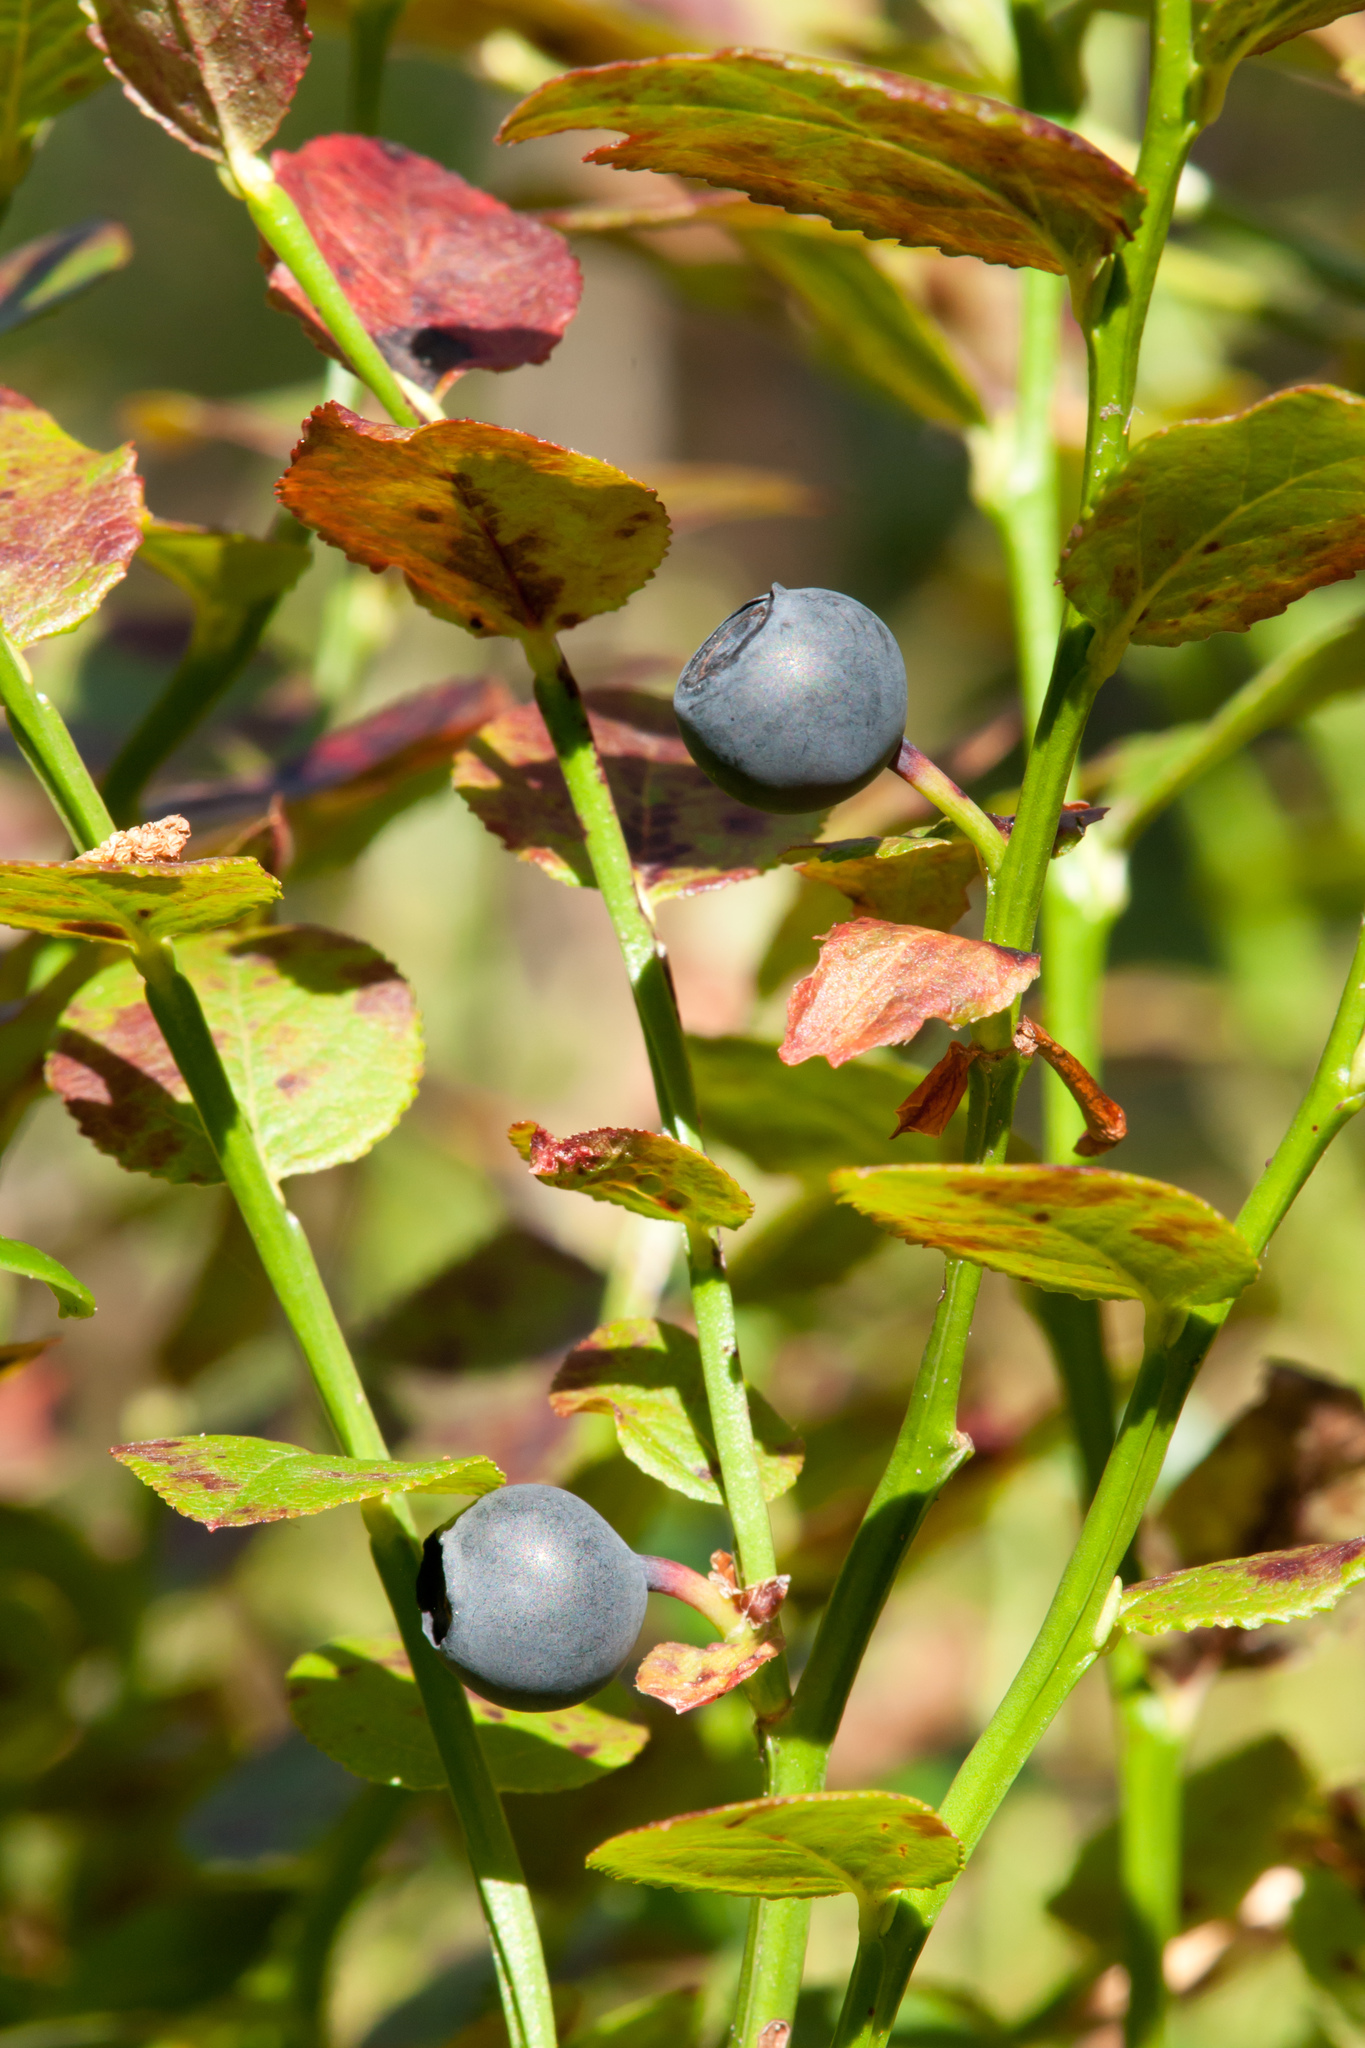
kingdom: Plantae
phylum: Tracheophyta
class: Magnoliopsida
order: Ericales
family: Ericaceae
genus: Vaccinium
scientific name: Vaccinium myrtillus
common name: Bilberry
